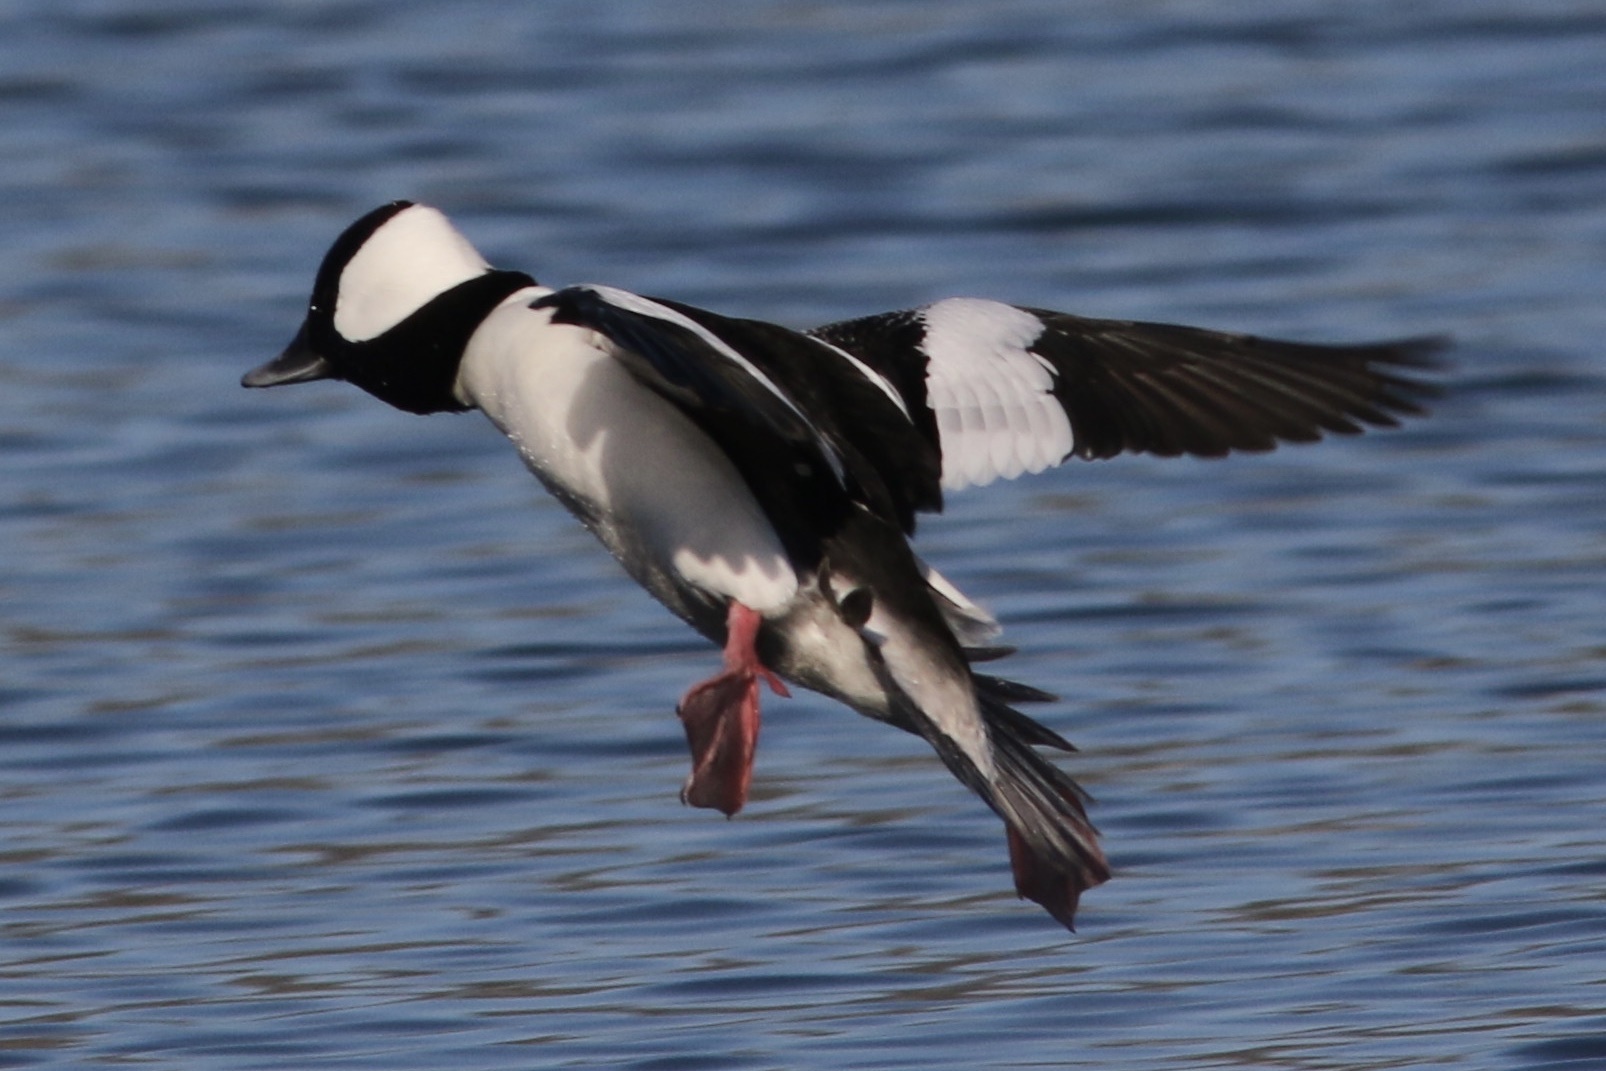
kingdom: Animalia
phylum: Chordata
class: Aves
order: Anseriformes
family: Anatidae
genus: Bucephala
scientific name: Bucephala albeola
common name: Bufflehead
